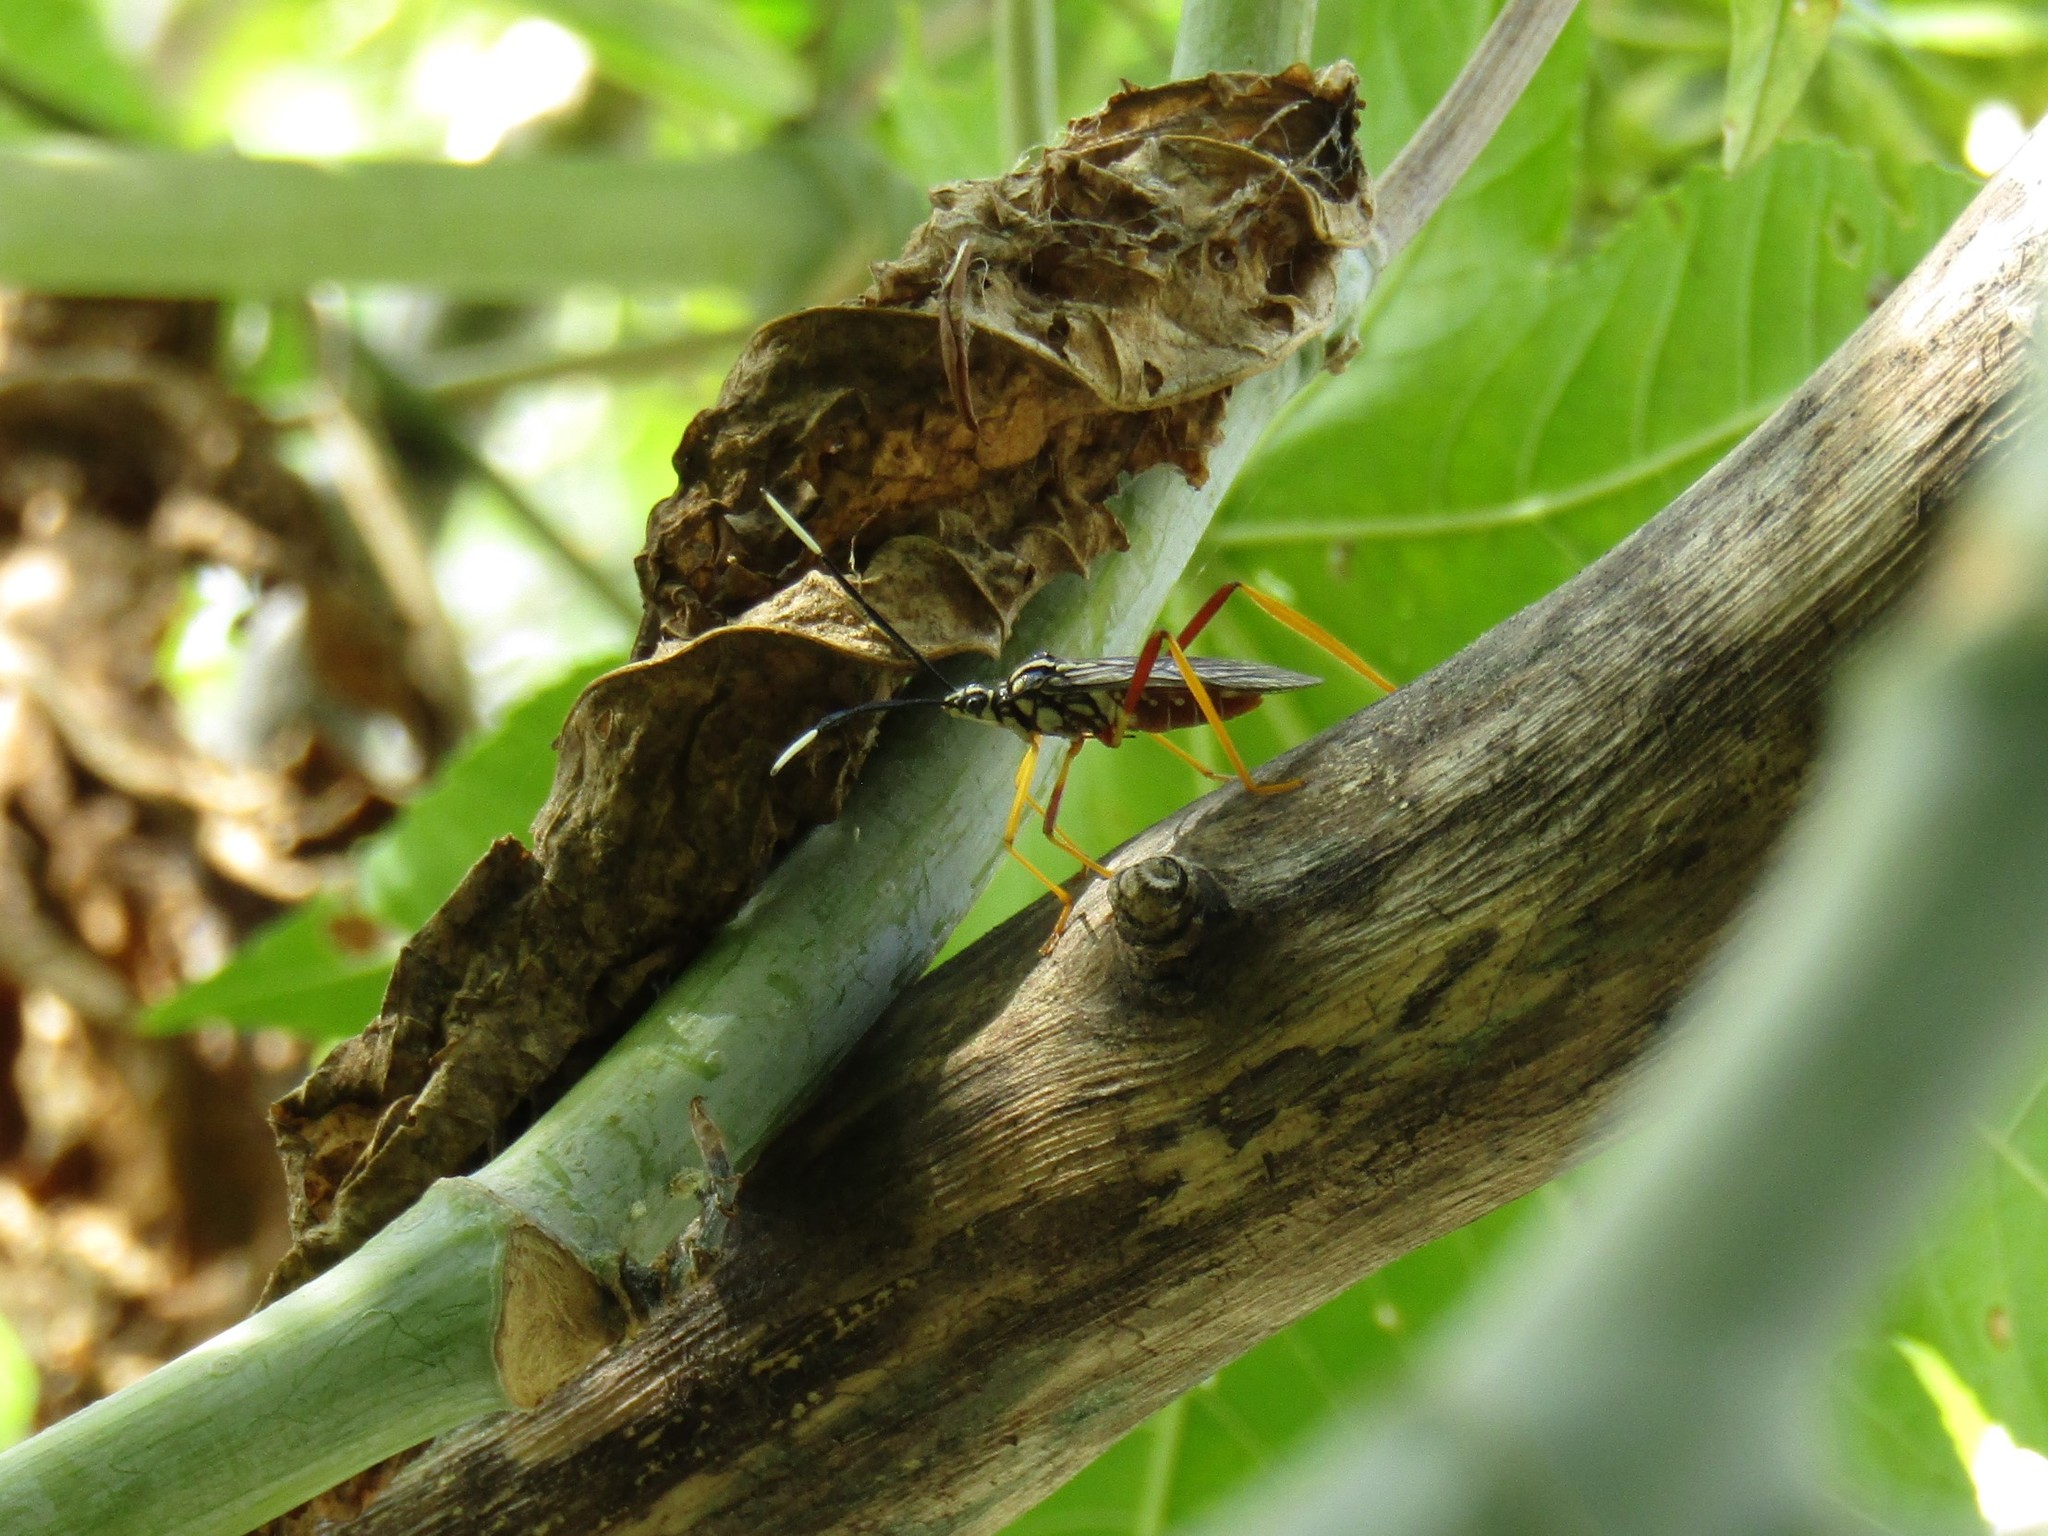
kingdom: Animalia
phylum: Arthropoda
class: Insecta
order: Hemiptera
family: Coreidae
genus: Holhymenia
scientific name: Holhymenia histrio
